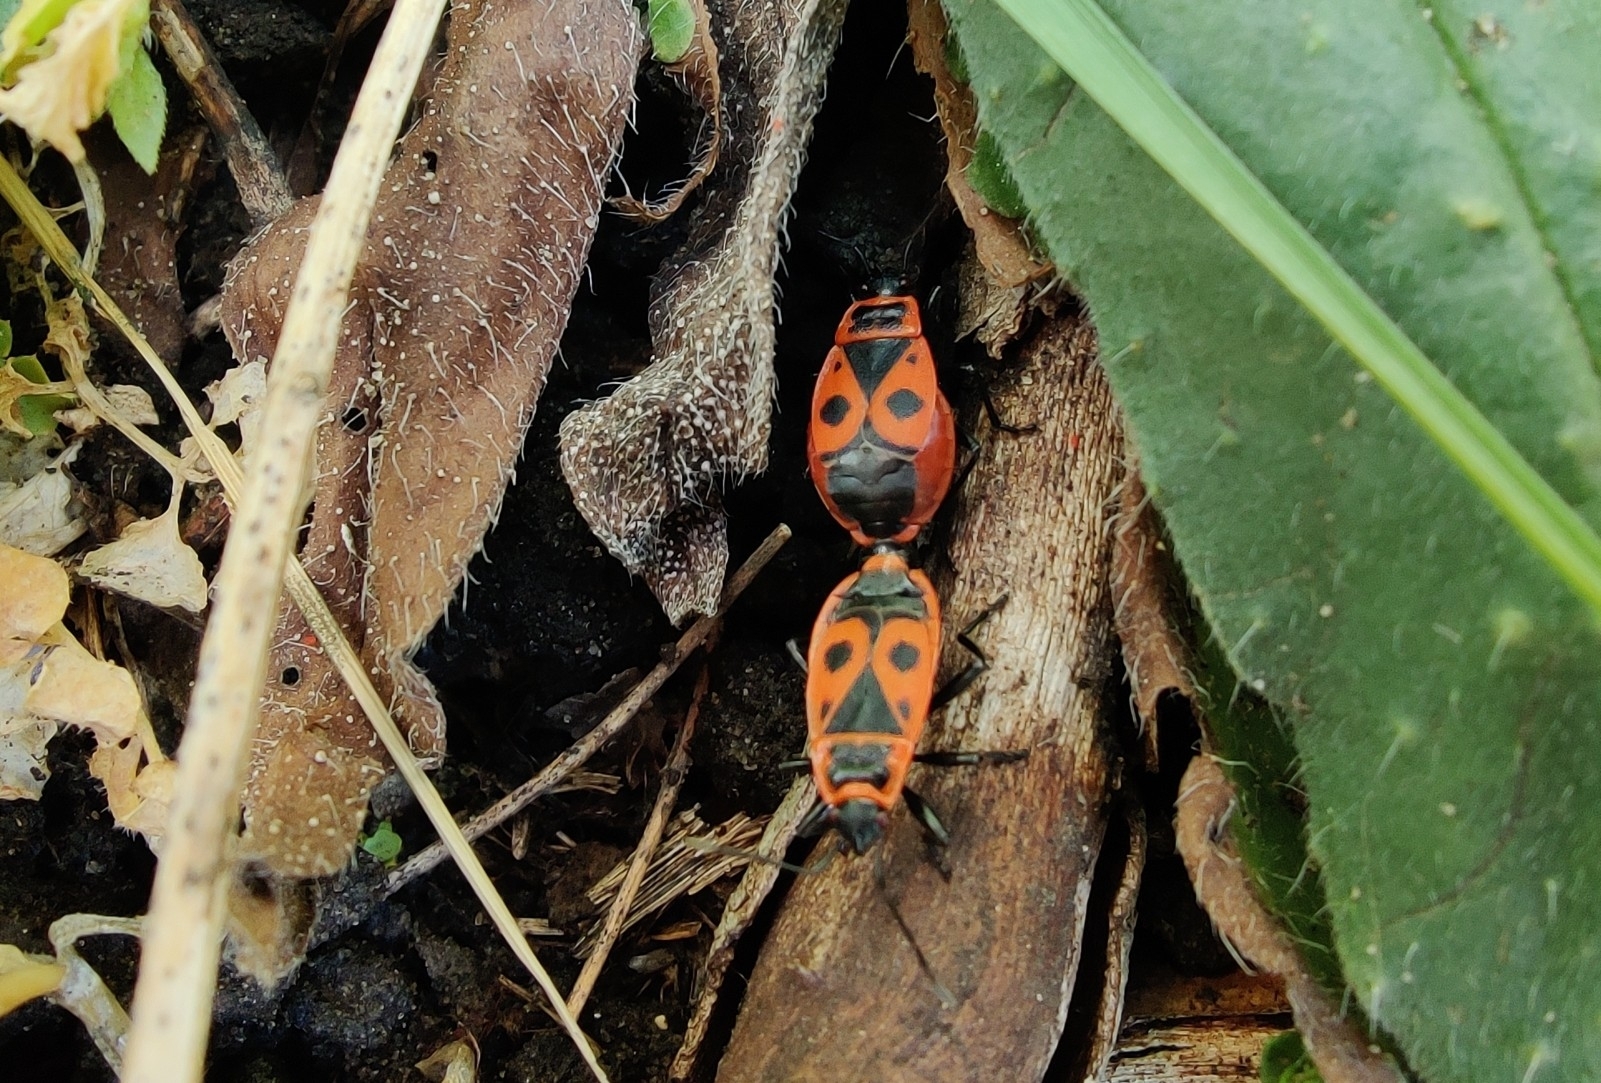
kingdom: Animalia
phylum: Arthropoda
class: Insecta
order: Hemiptera
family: Pyrrhocoridae
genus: Pyrrhocoris
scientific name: Pyrrhocoris apterus
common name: Firebug
